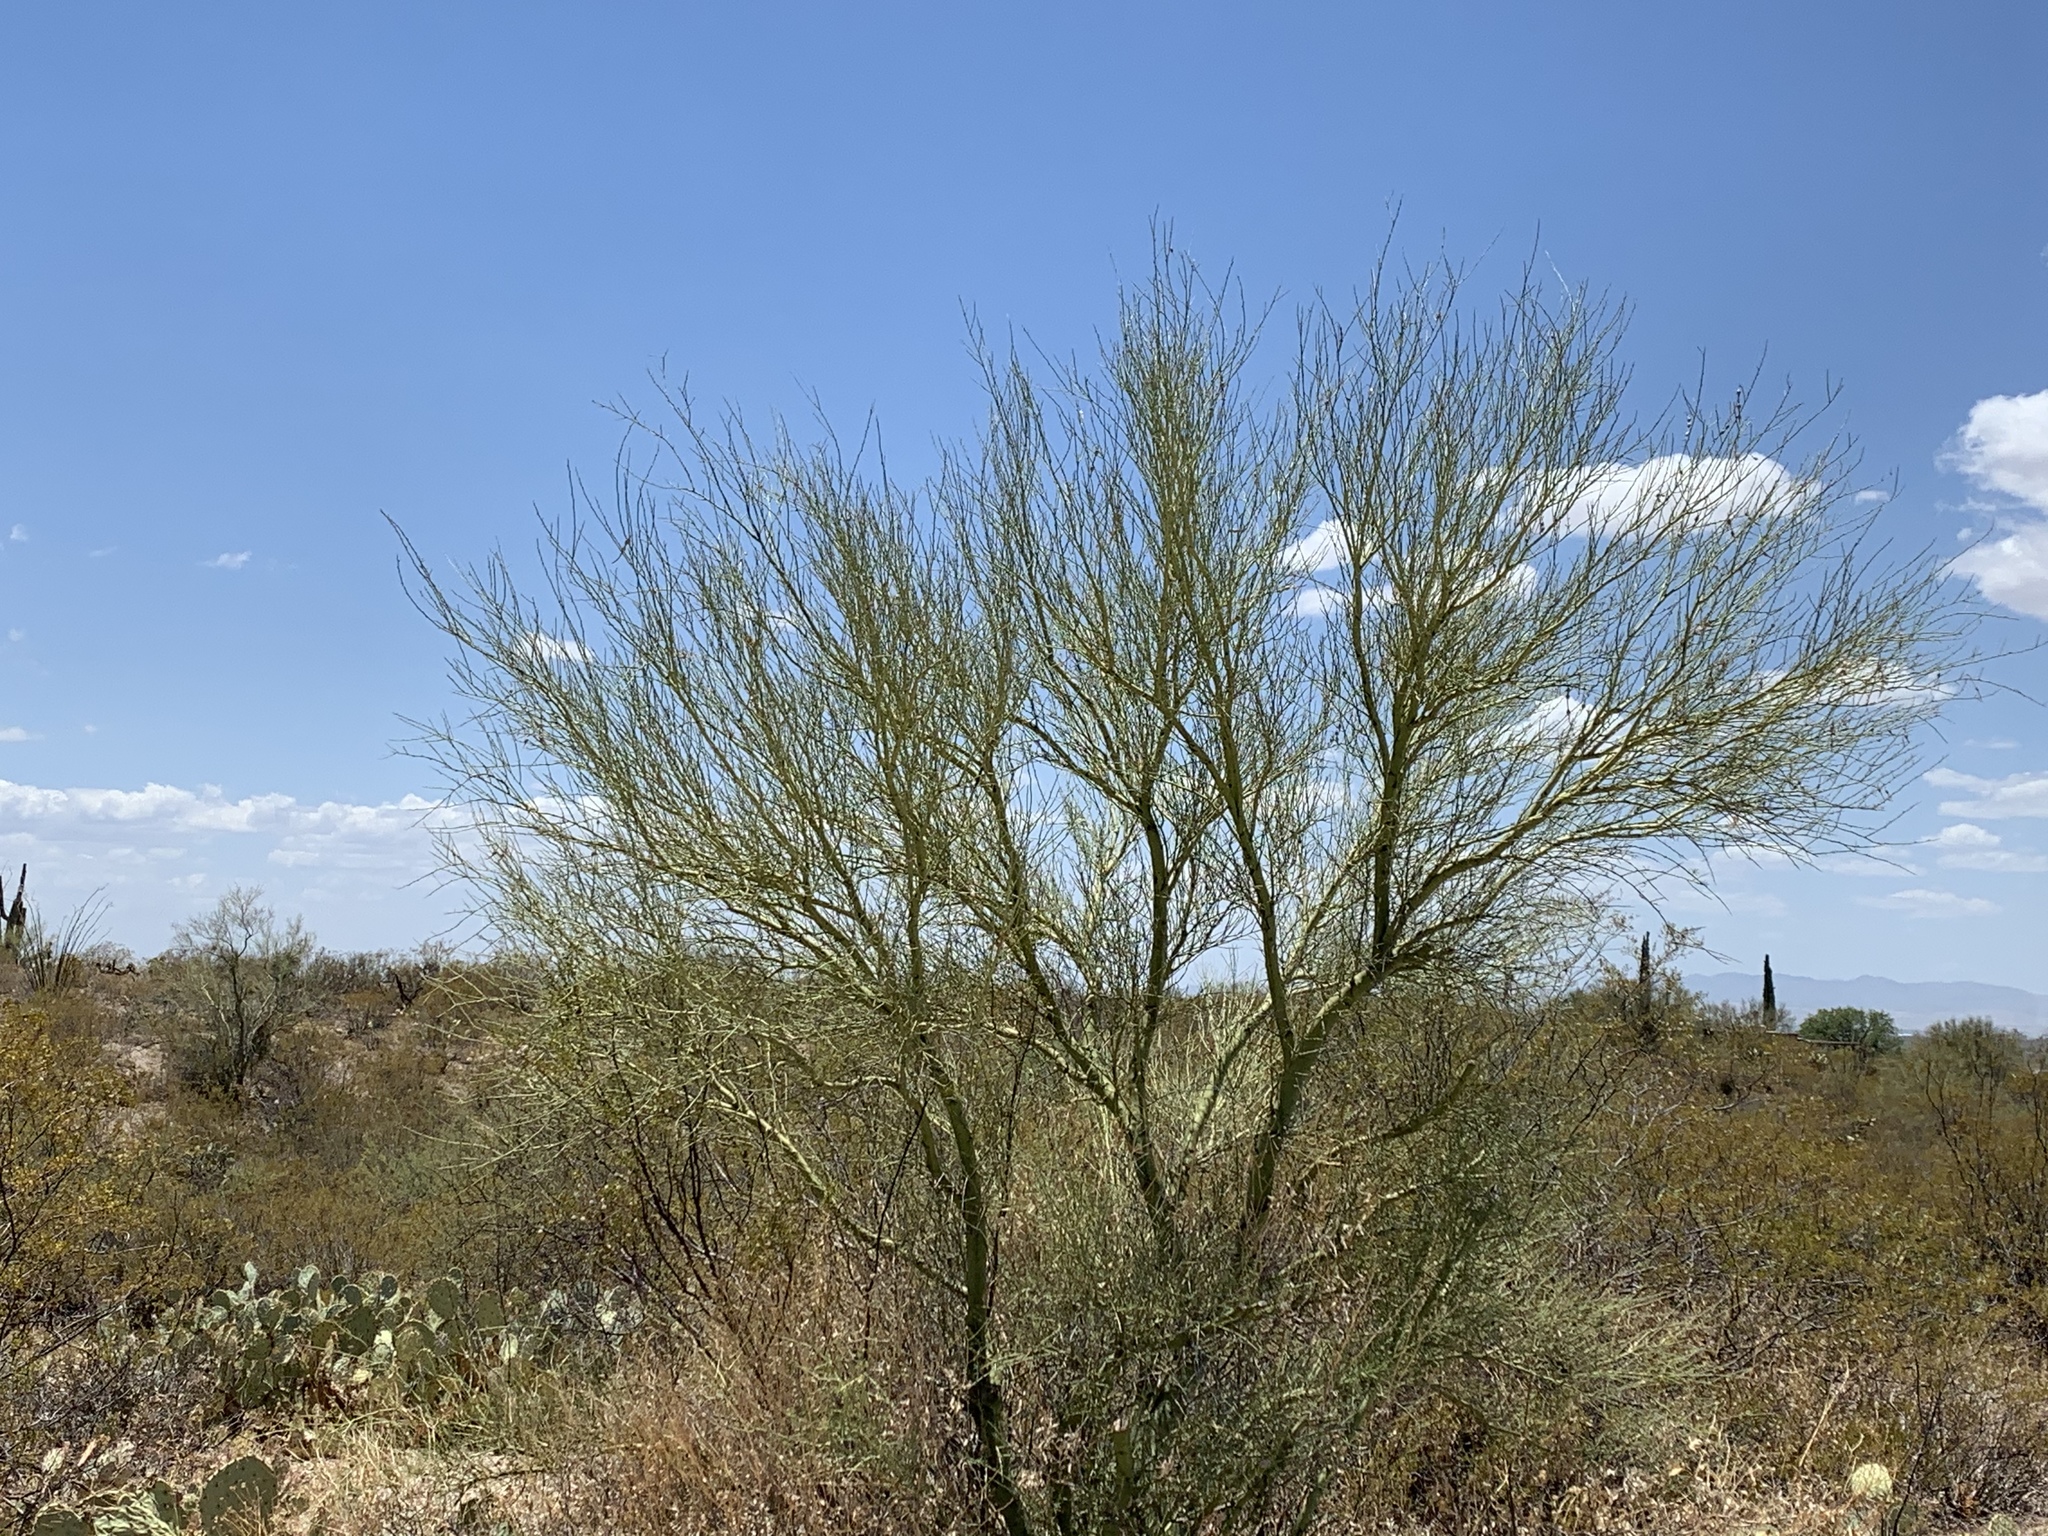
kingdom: Plantae
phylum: Tracheophyta
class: Magnoliopsida
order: Fabales
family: Fabaceae
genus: Parkinsonia
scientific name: Parkinsonia microphylla
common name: Yellow paloverde
